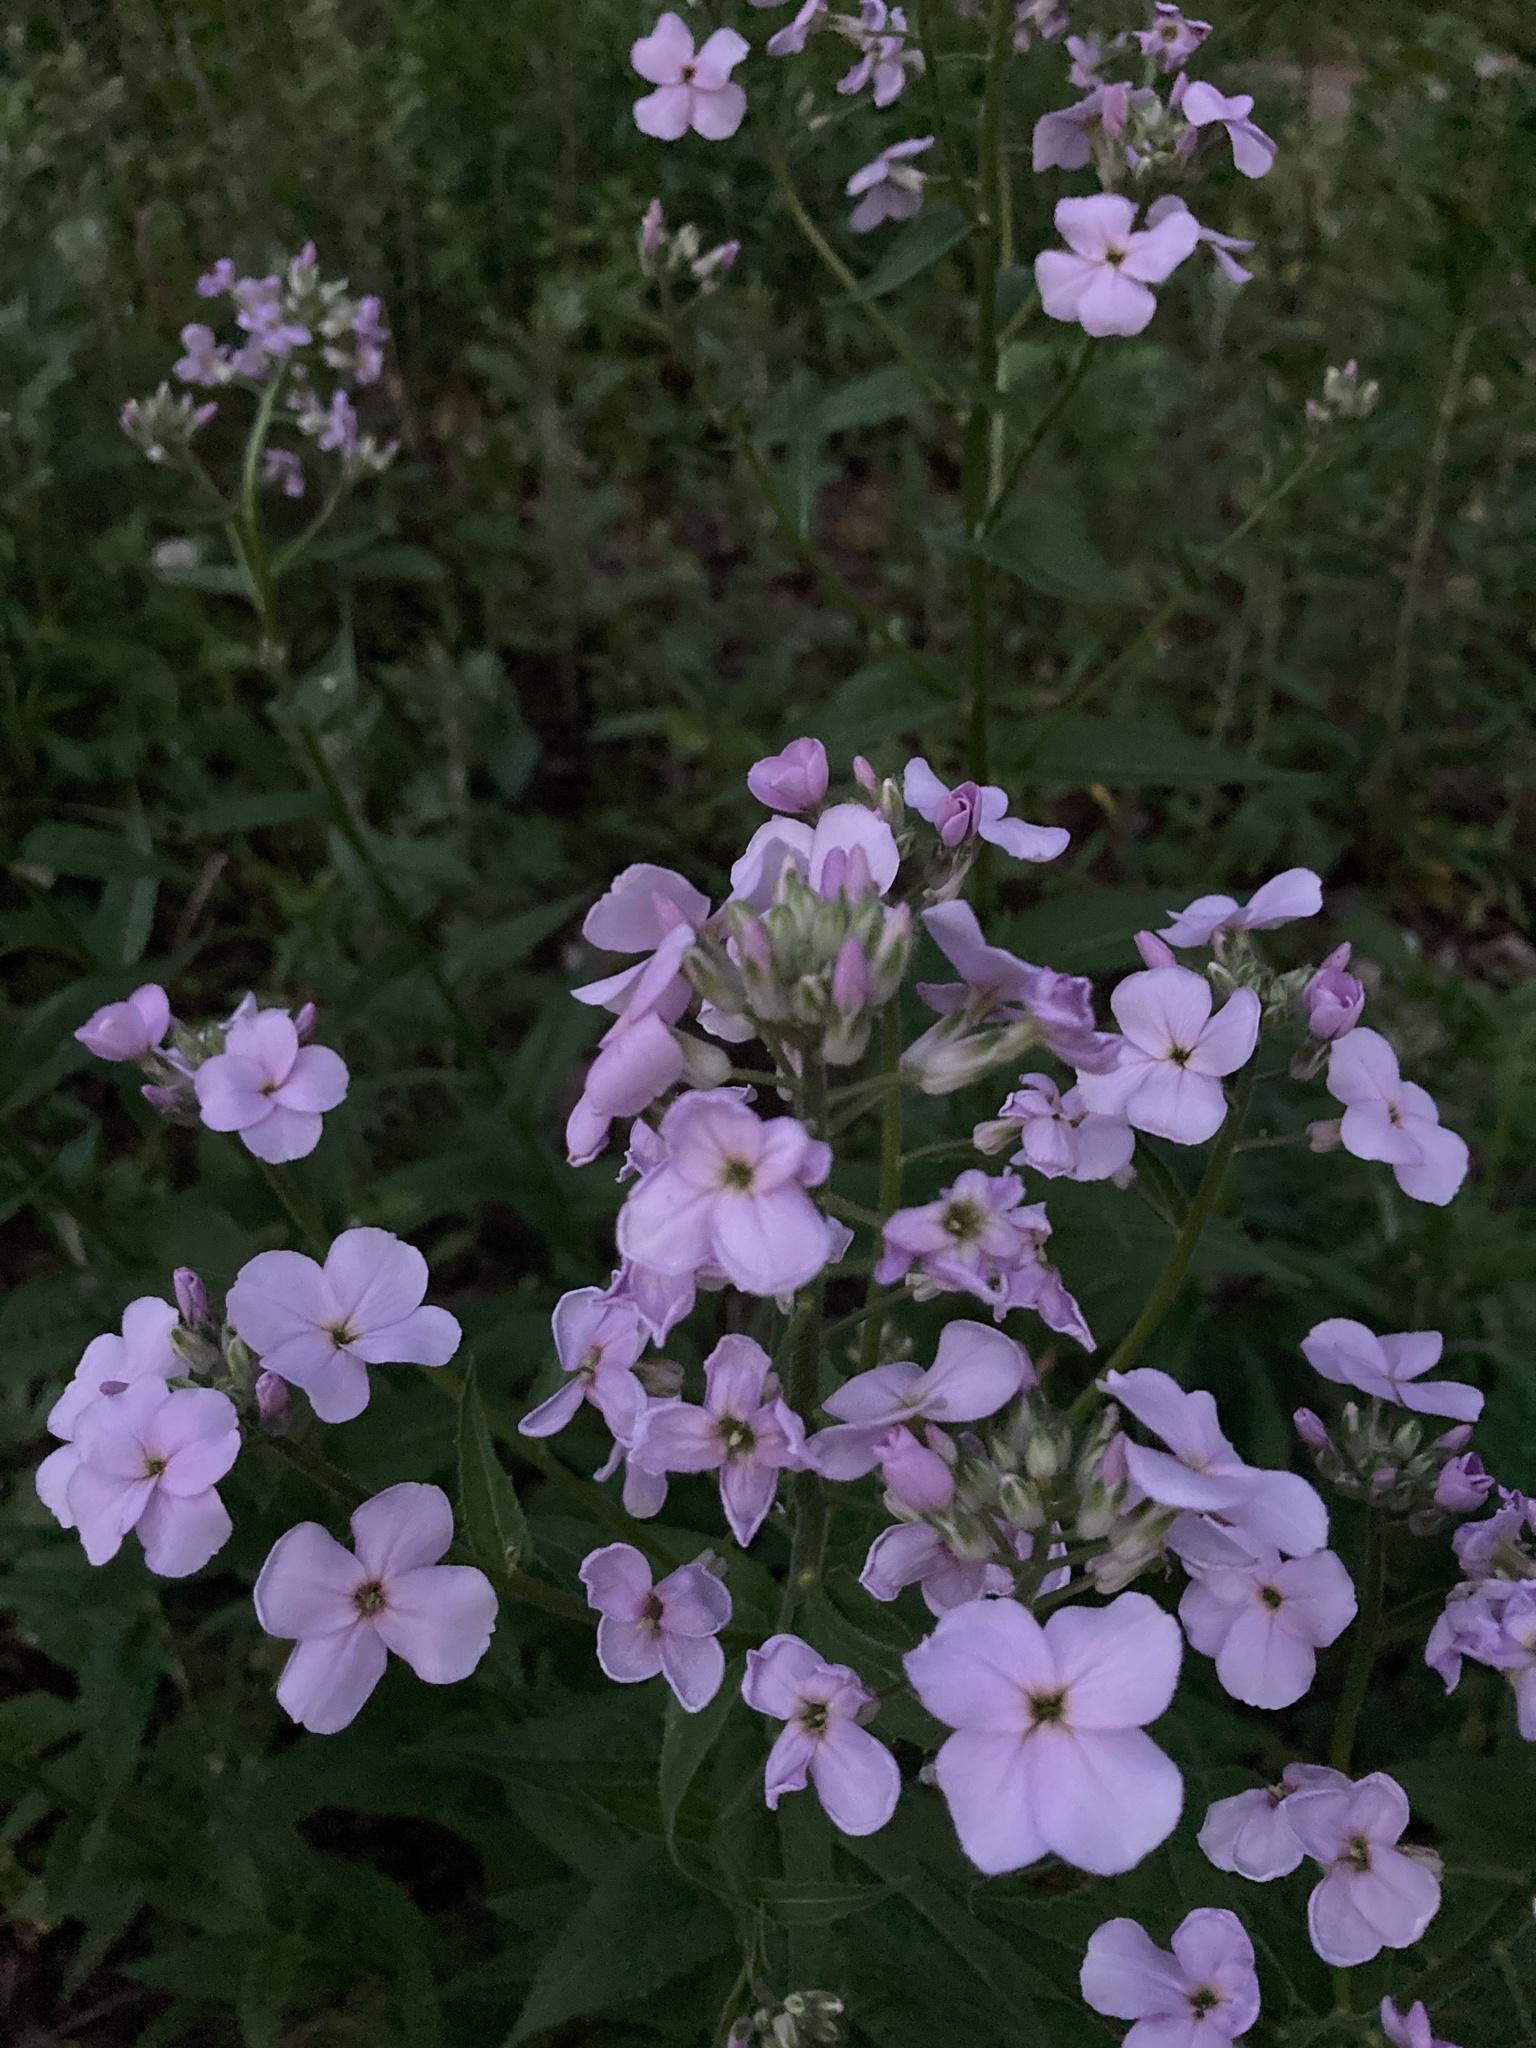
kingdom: Plantae
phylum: Tracheophyta
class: Magnoliopsida
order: Brassicales
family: Brassicaceae
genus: Hesperis
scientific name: Hesperis matronalis
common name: Dame's-violet
